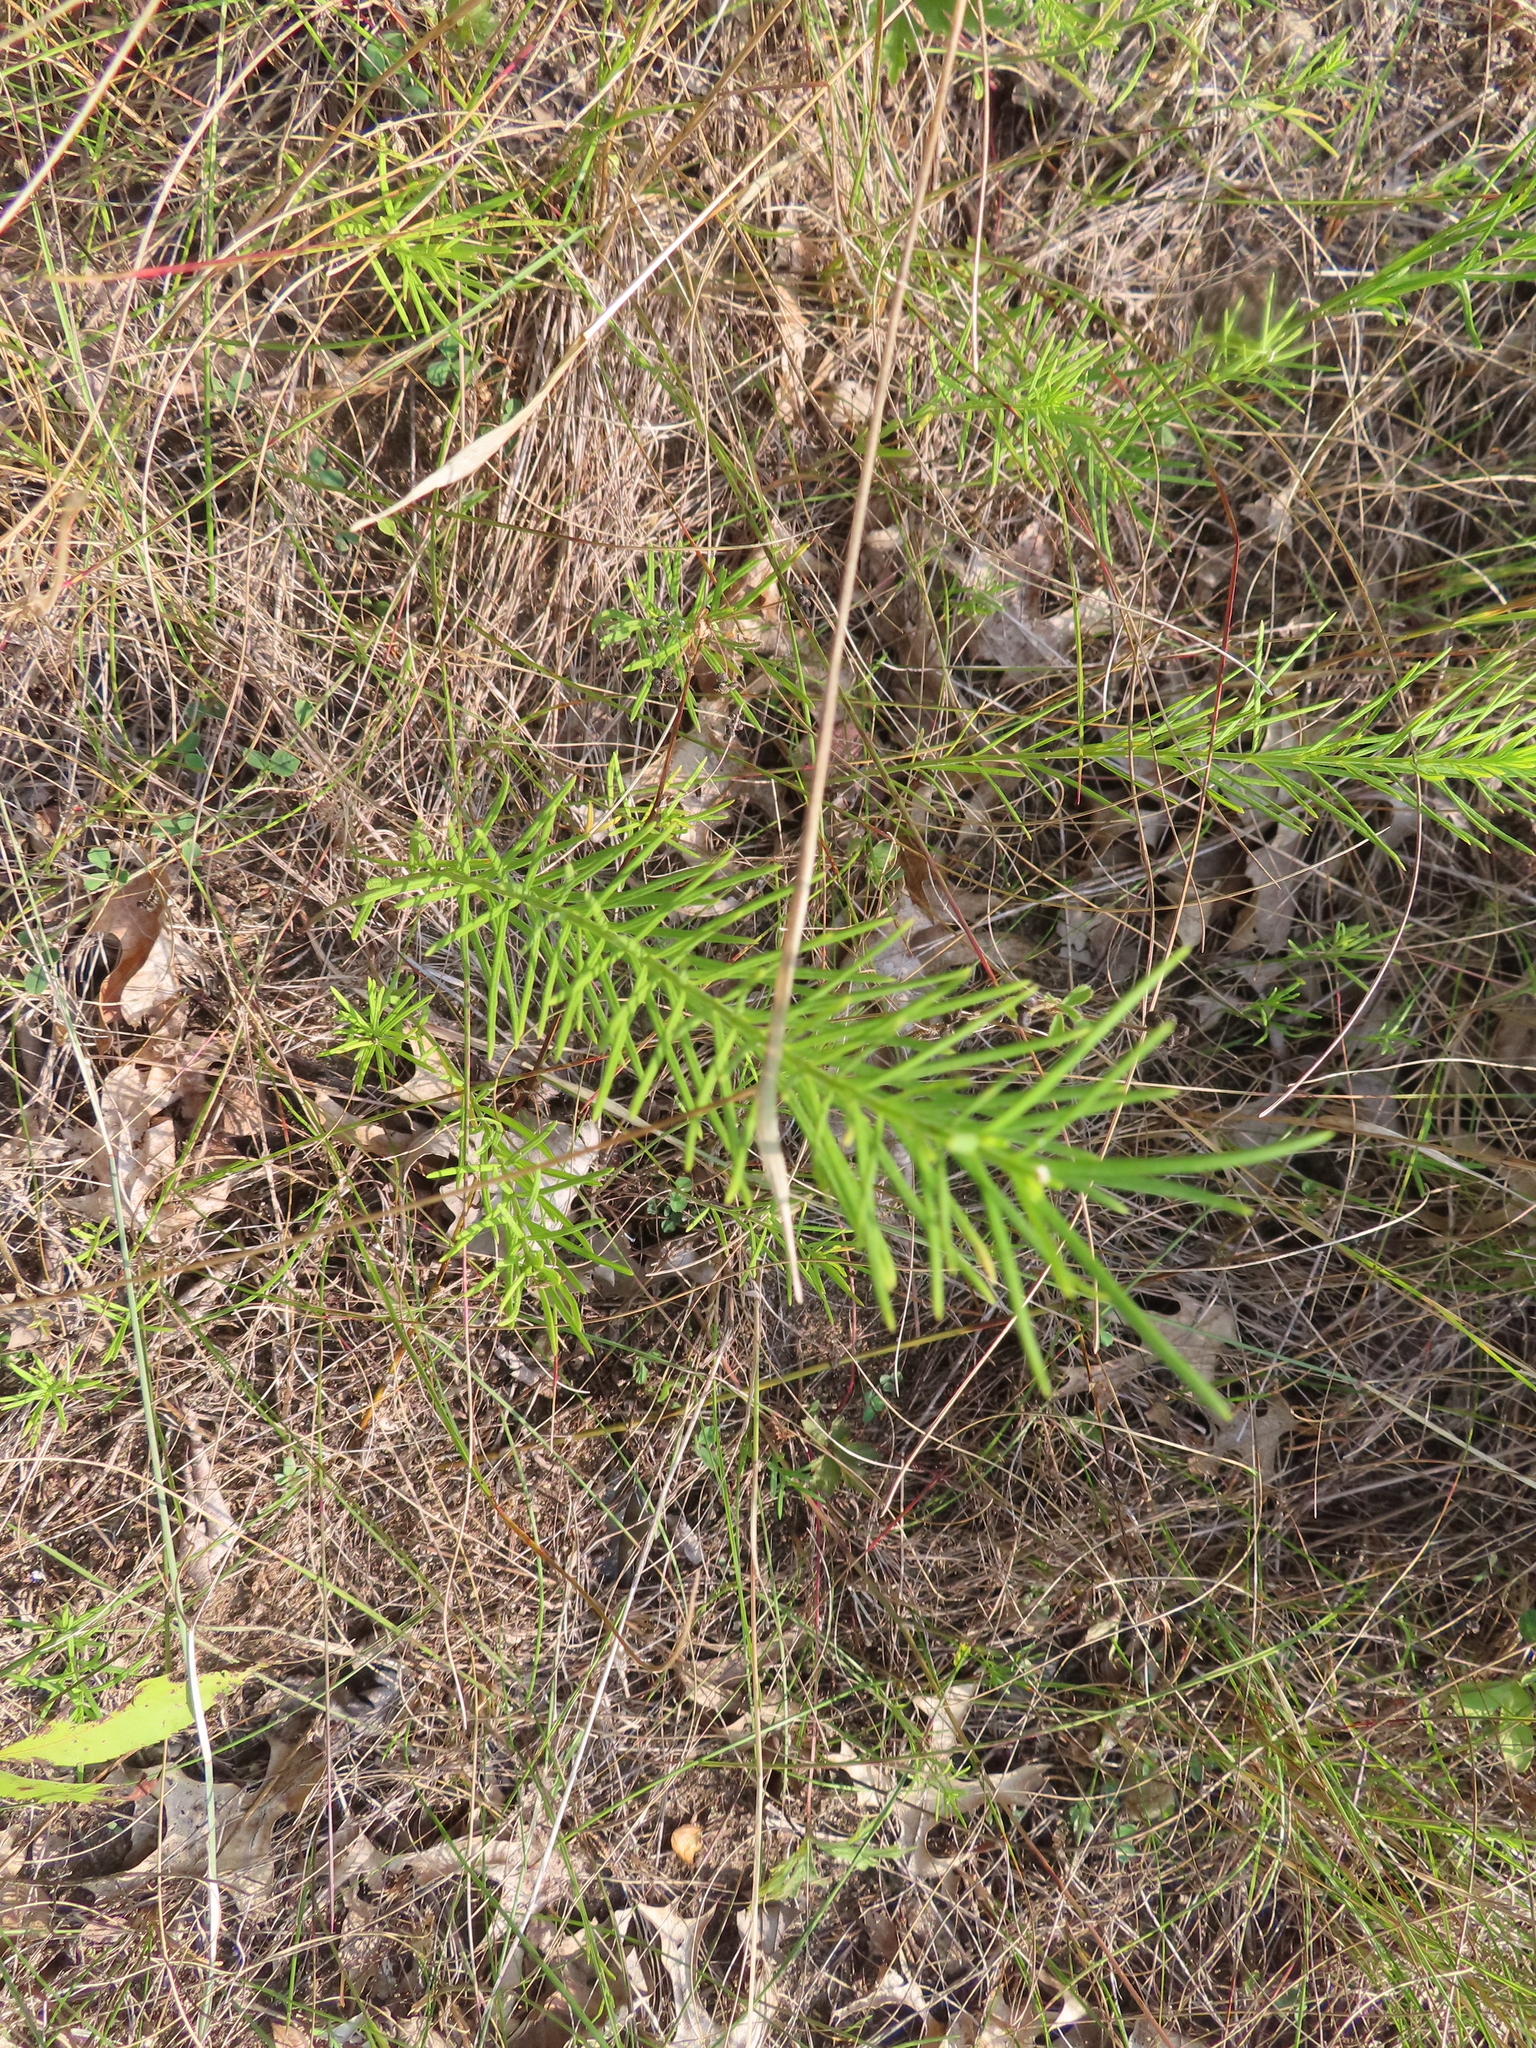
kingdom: Plantae
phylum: Tracheophyta
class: Magnoliopsida
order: Gentianales
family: Apocynaceae
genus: Asclepias
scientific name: Asclepias verticillata
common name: Eastern whorled milkweed
